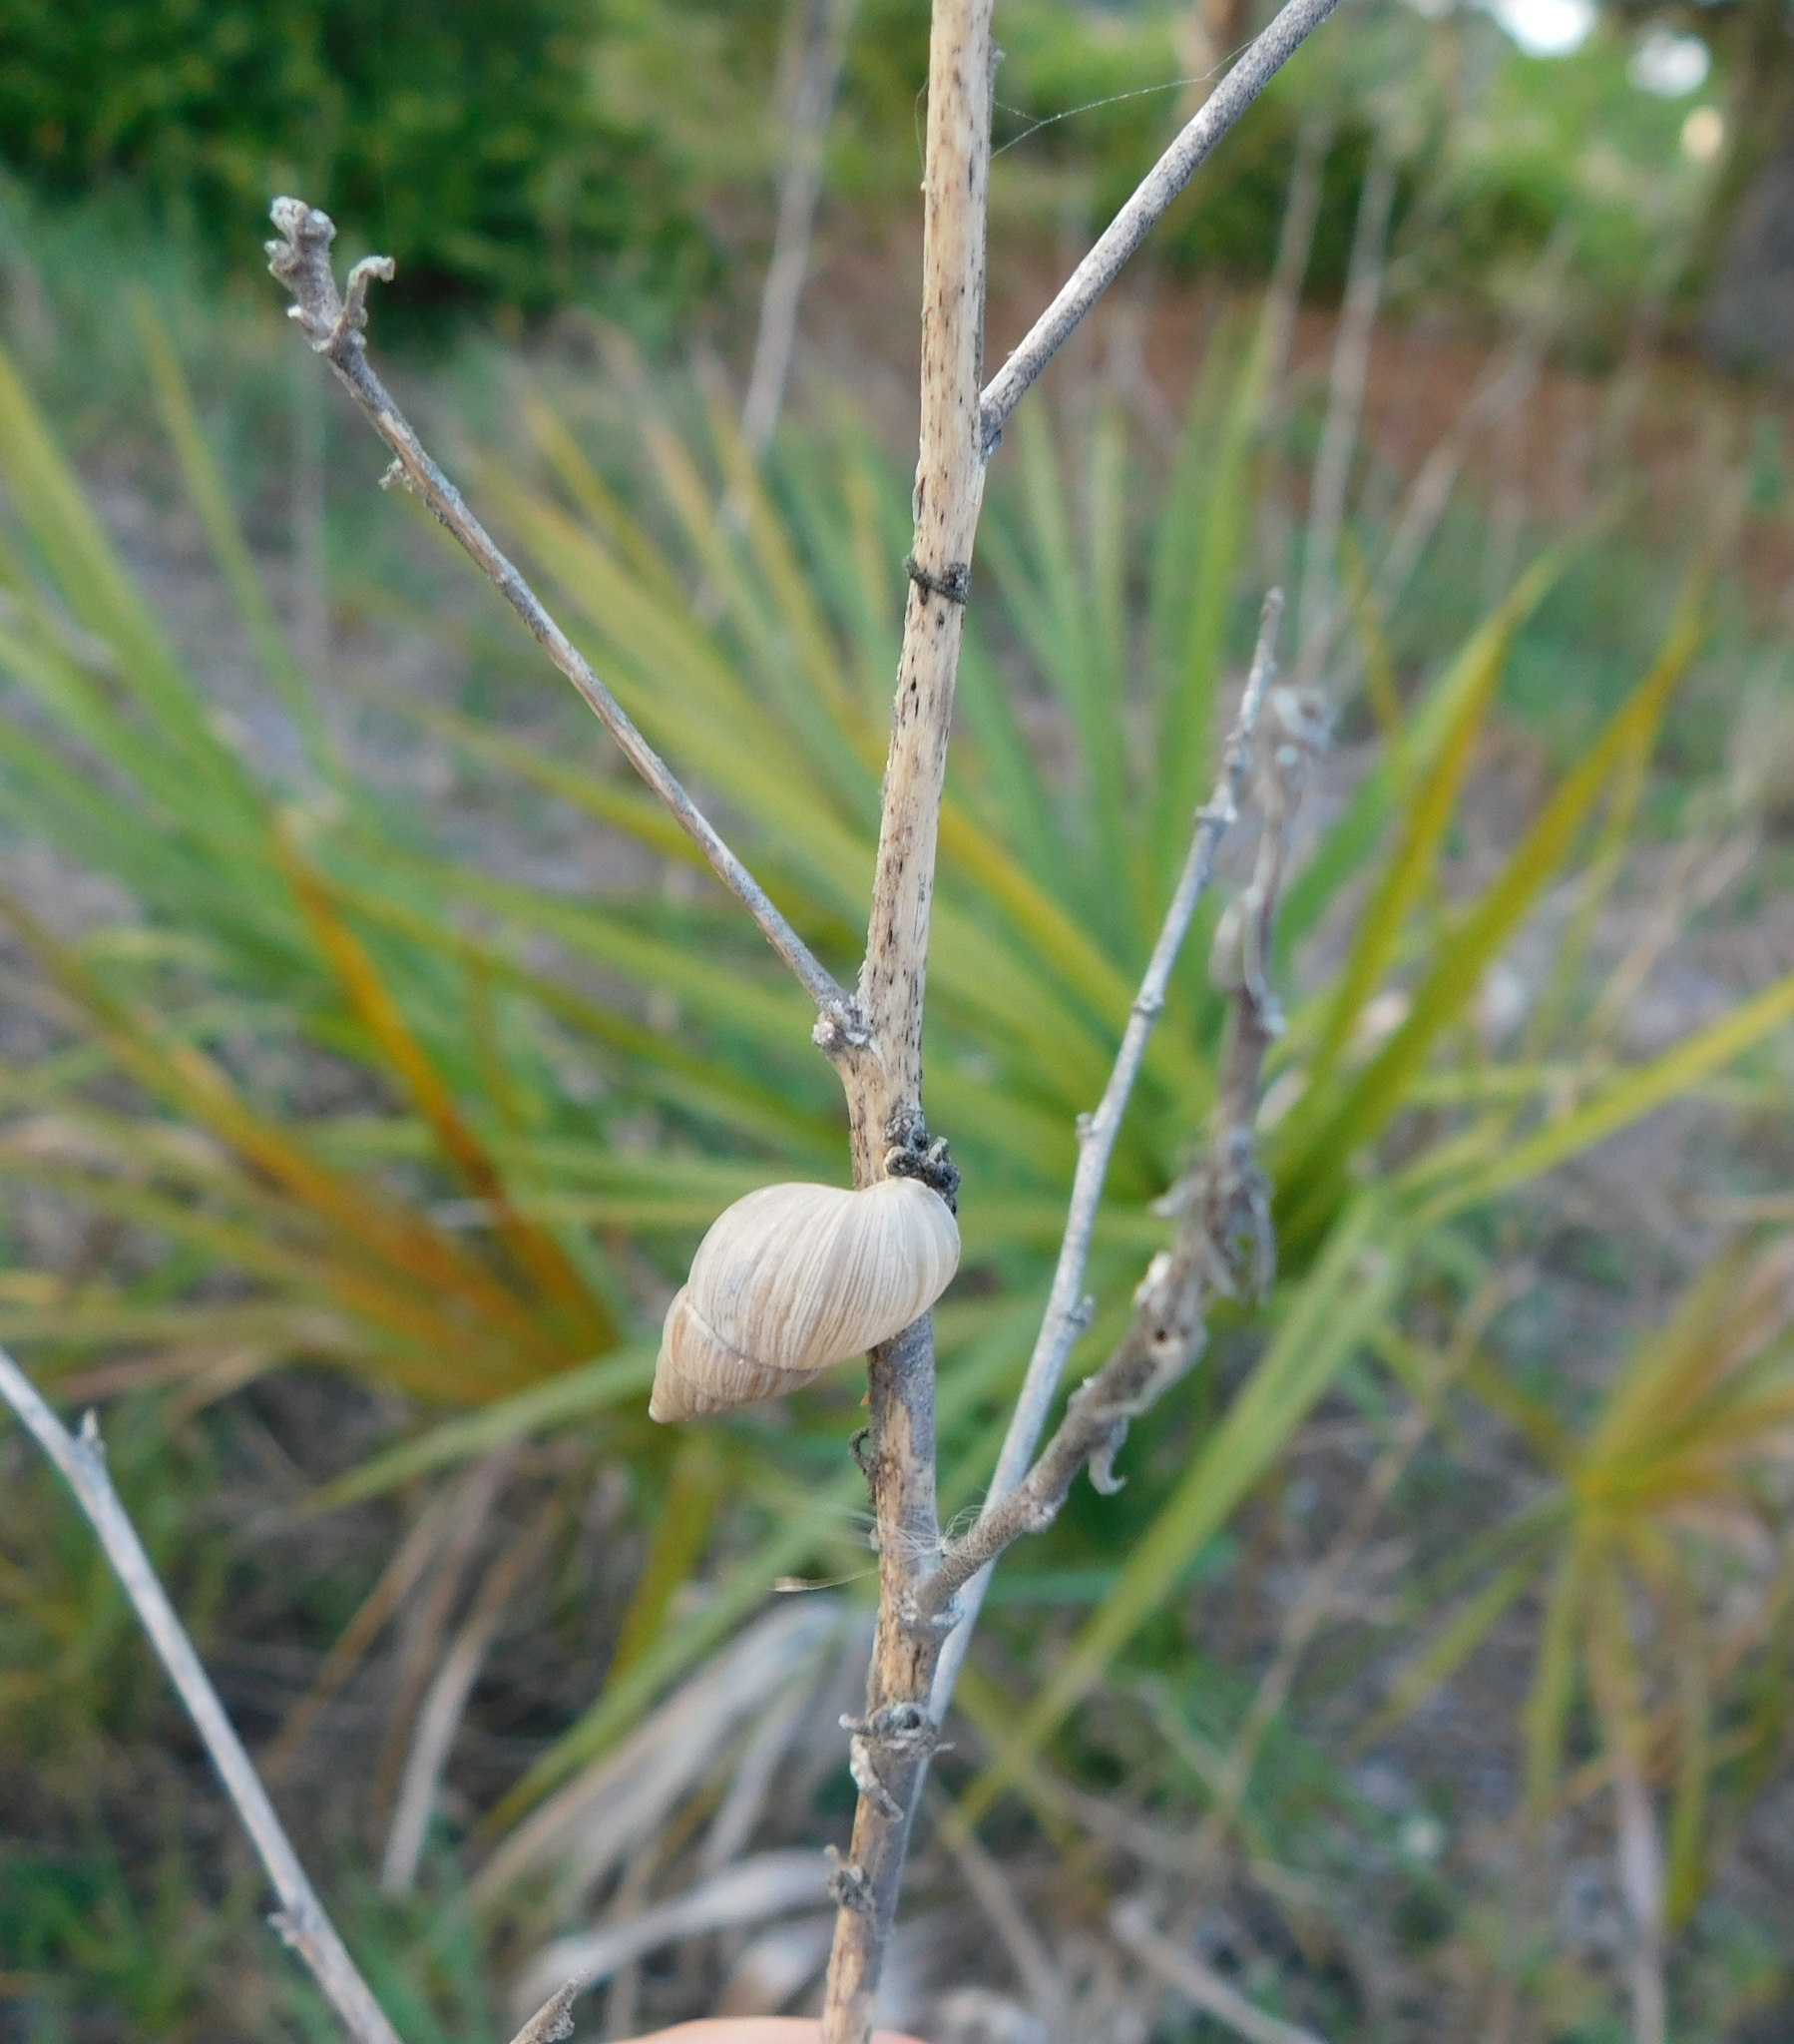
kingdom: Animalia
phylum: Mollusca
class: Gastropoda
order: Stylommatophora
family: Bulimulidae
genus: Bulimulus
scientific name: Bulimulus bonariensis
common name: Snail
